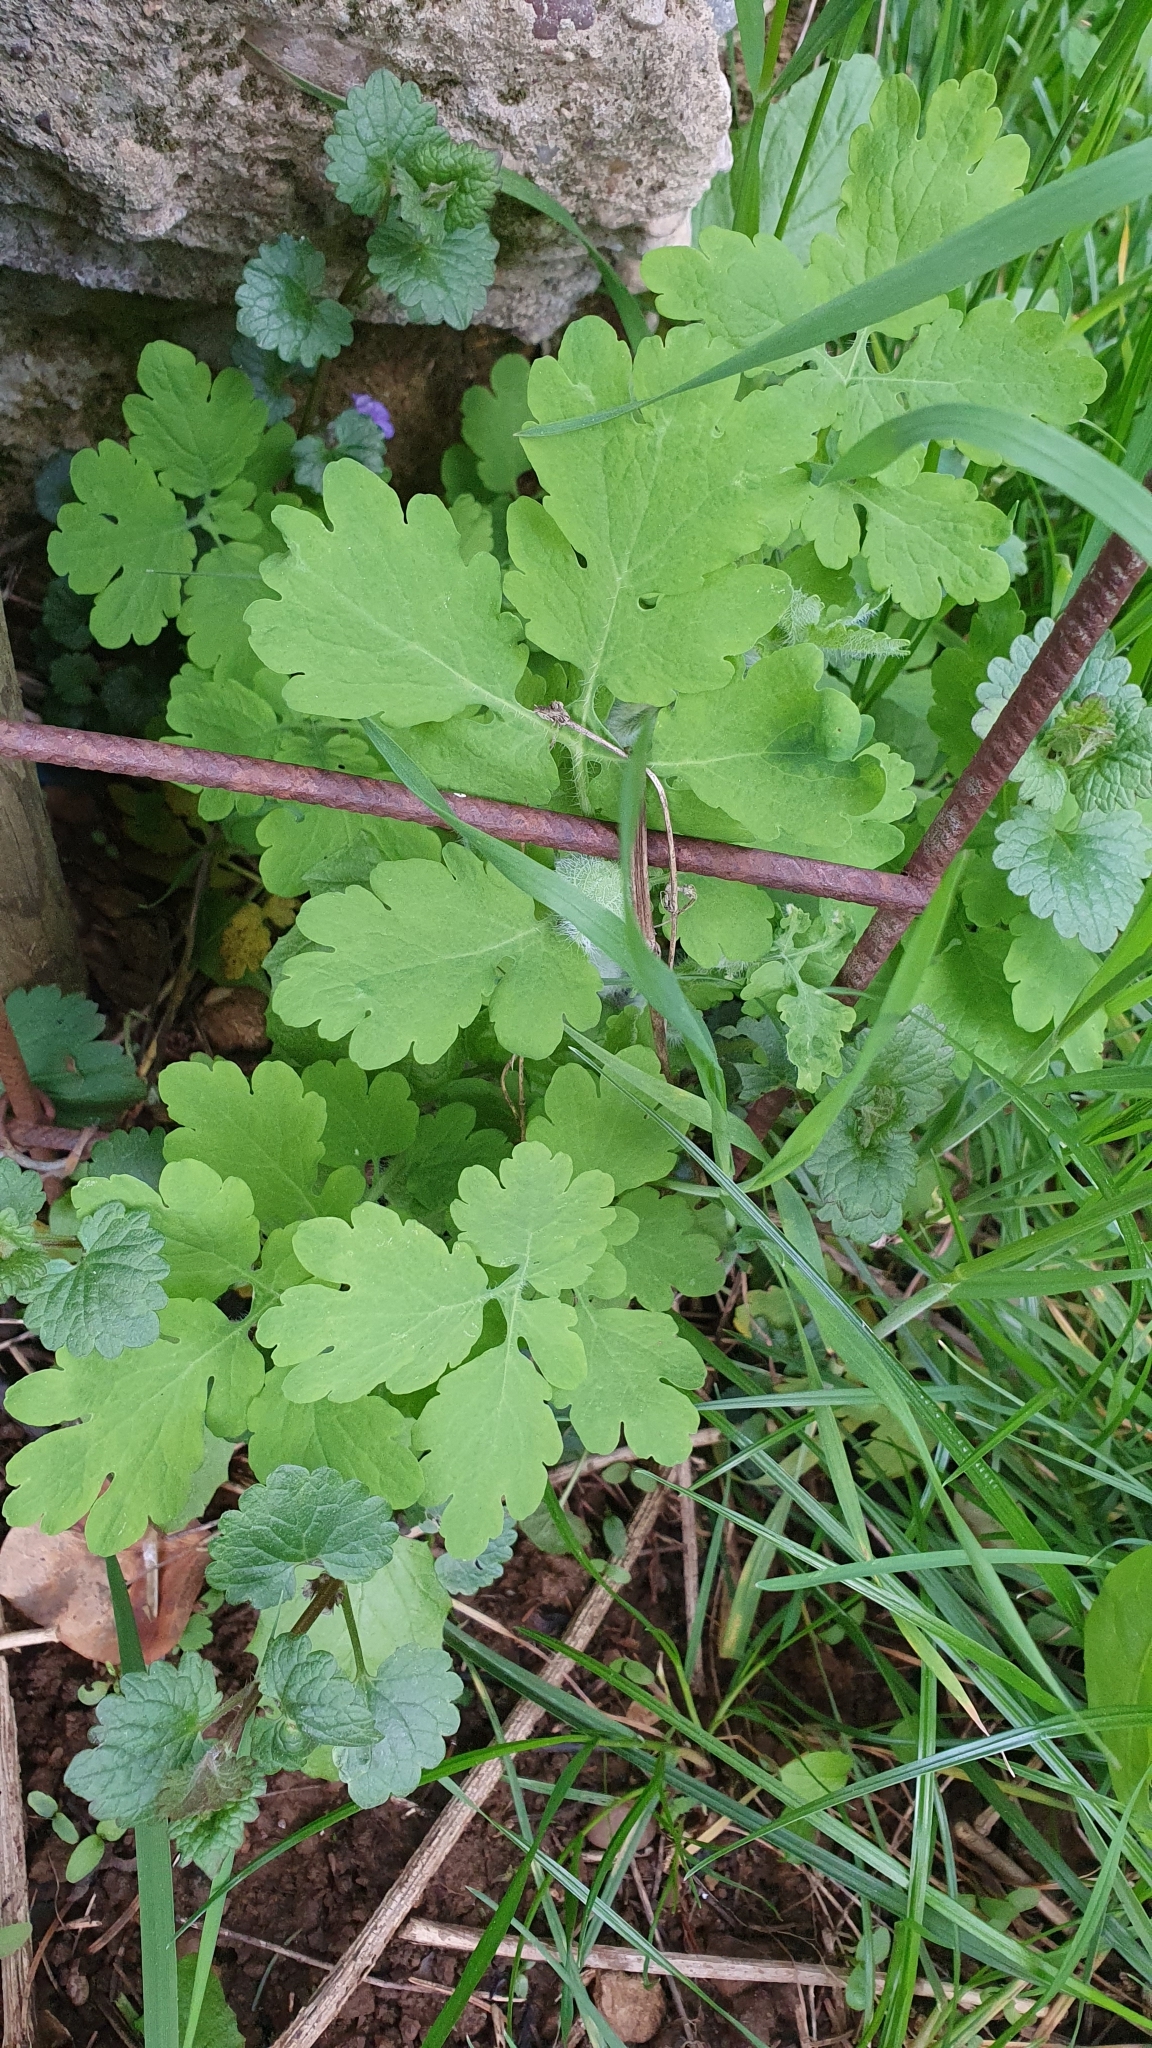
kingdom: Plantae
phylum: Tracheophyta
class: Magnoliopsida
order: Ranunculales
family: Papaveraceae
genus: Chelidonium
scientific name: Chelidonium majus
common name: Greater celandine
